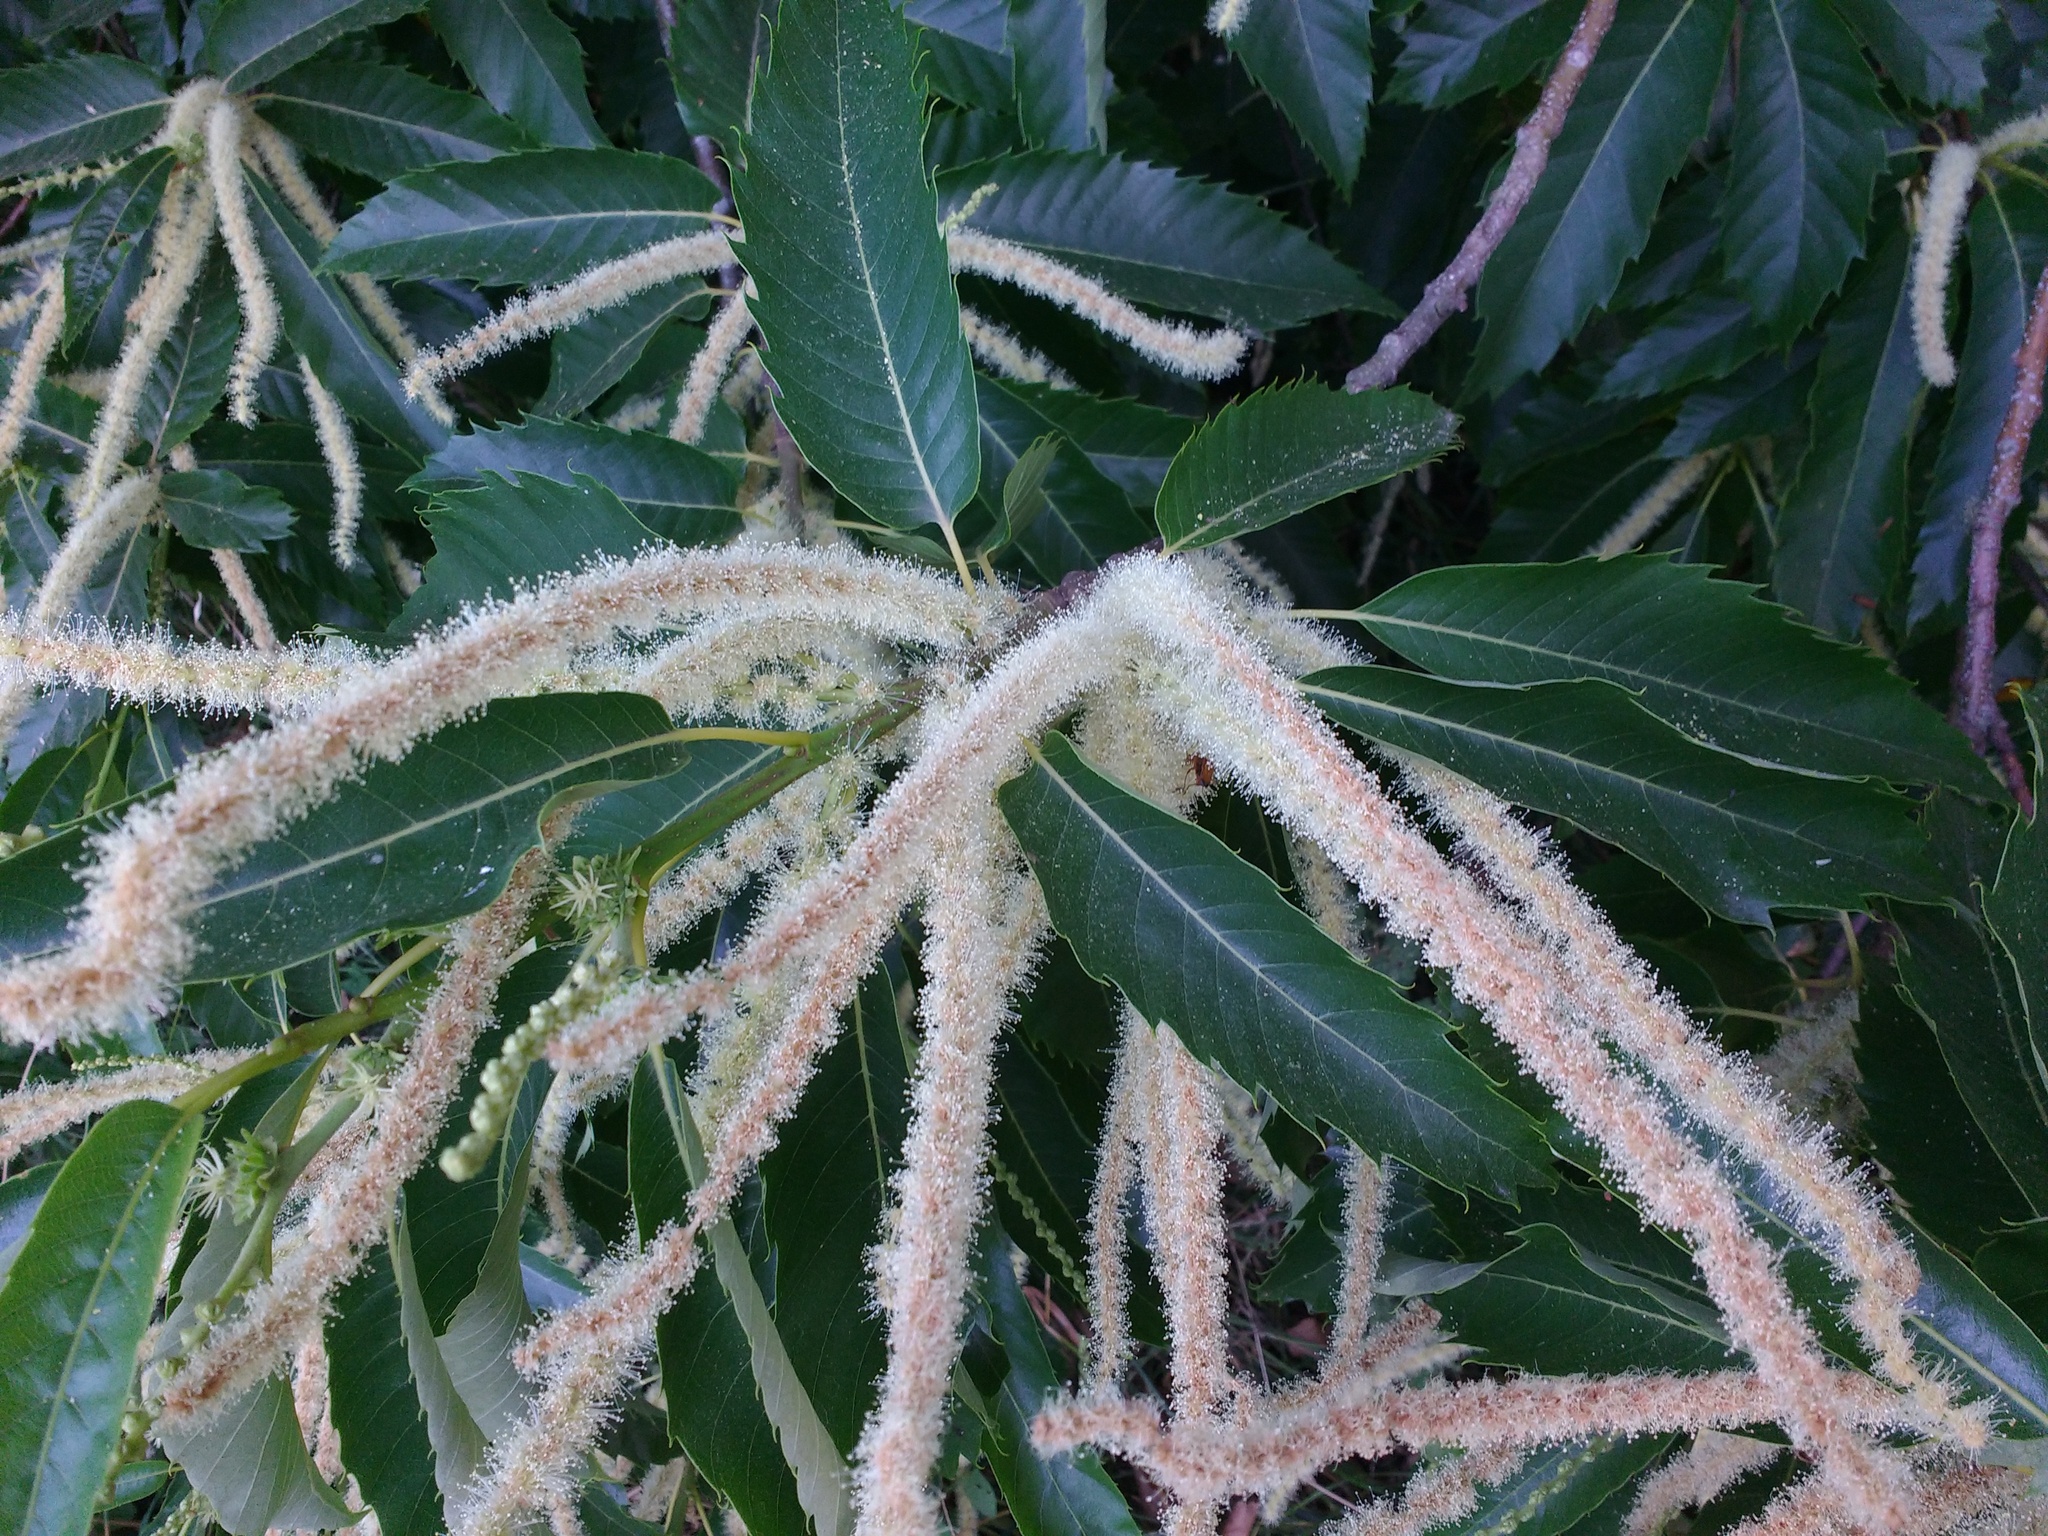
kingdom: Plantae
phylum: Tracheophyta
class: Magnoliopsida
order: Fagales
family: Fagaceae
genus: Castanea
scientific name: Castanea sativa
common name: Sweet chestnut
